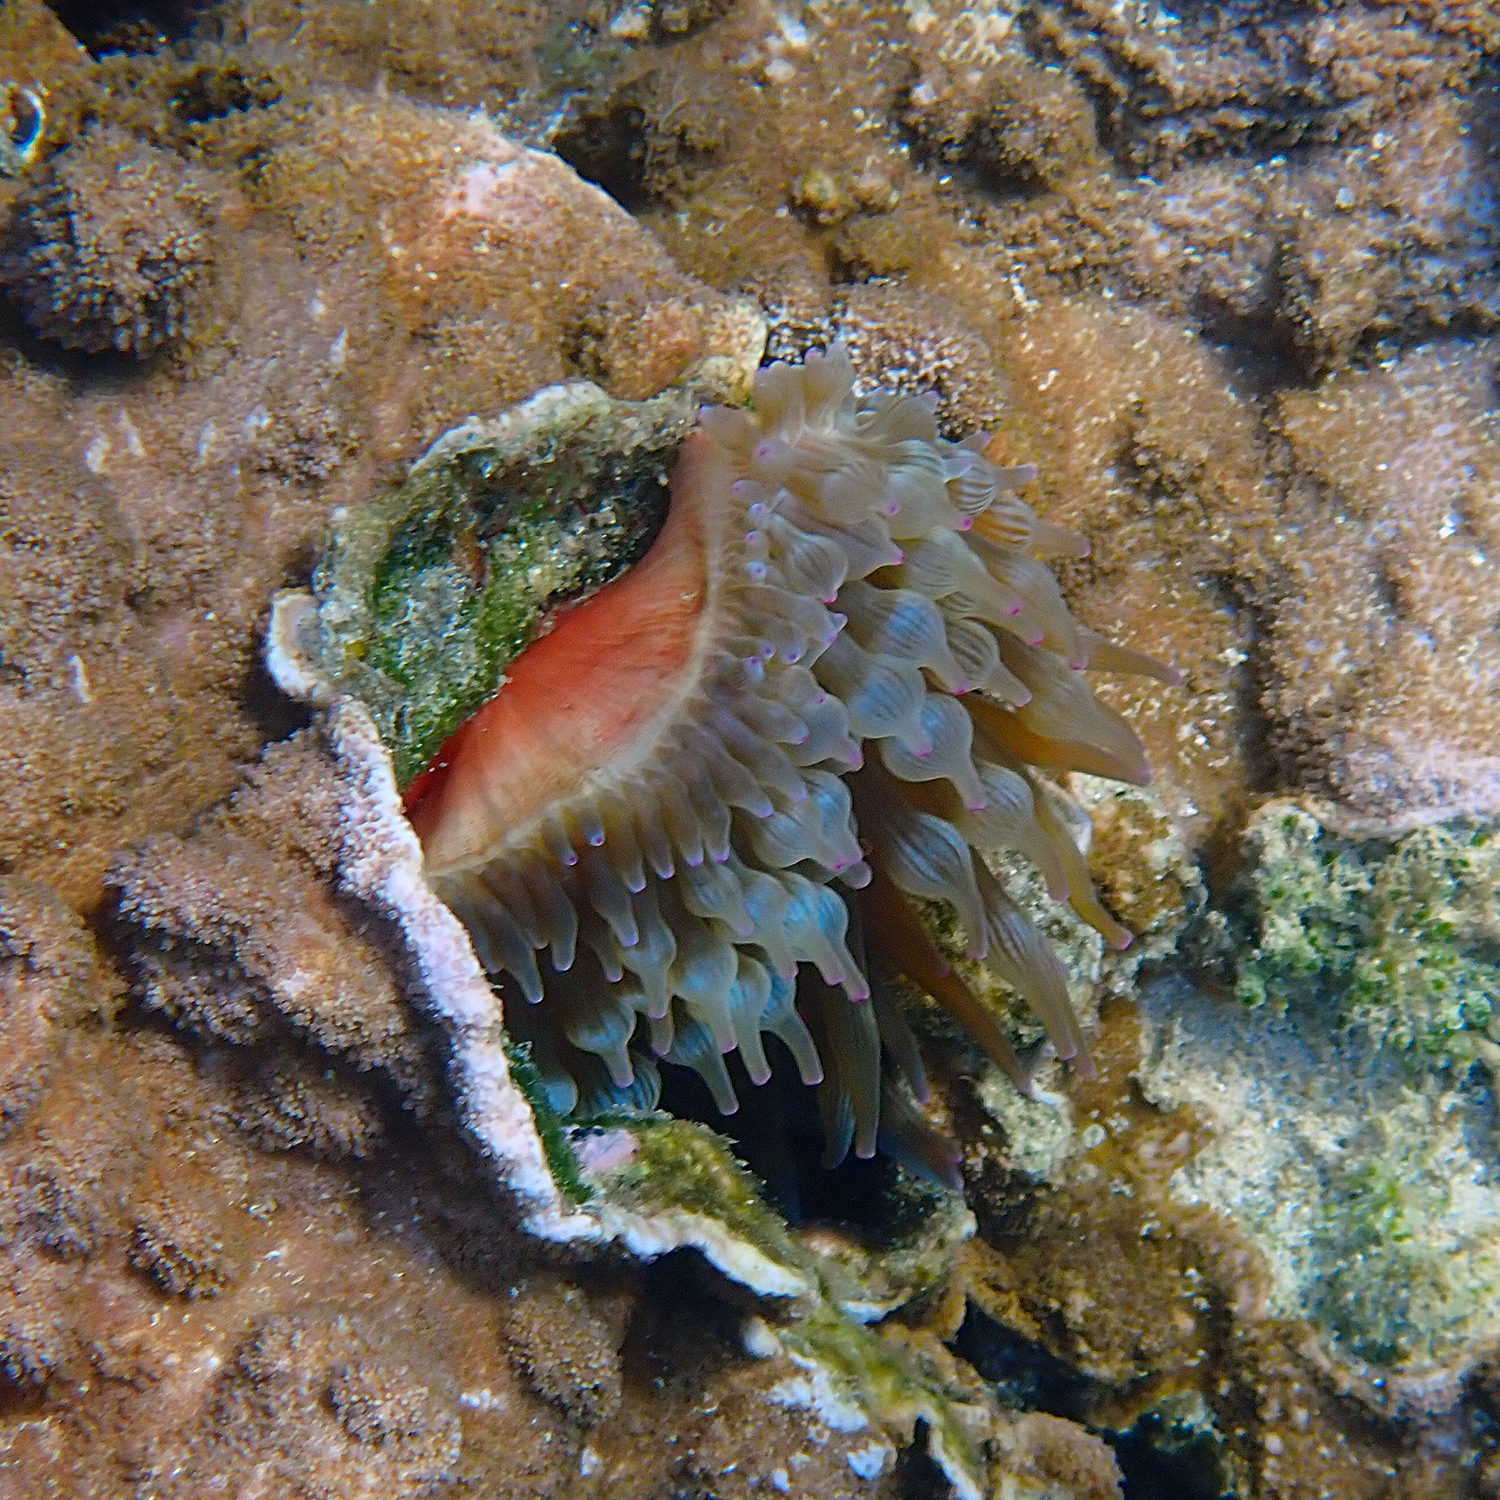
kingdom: Animalia
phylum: Cnidaria
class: Anthozoa
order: Actiniaria
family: Actiniidae
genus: Entacmaea
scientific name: Entacmaea quadricolor
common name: Bulb tentacle sea anemone
